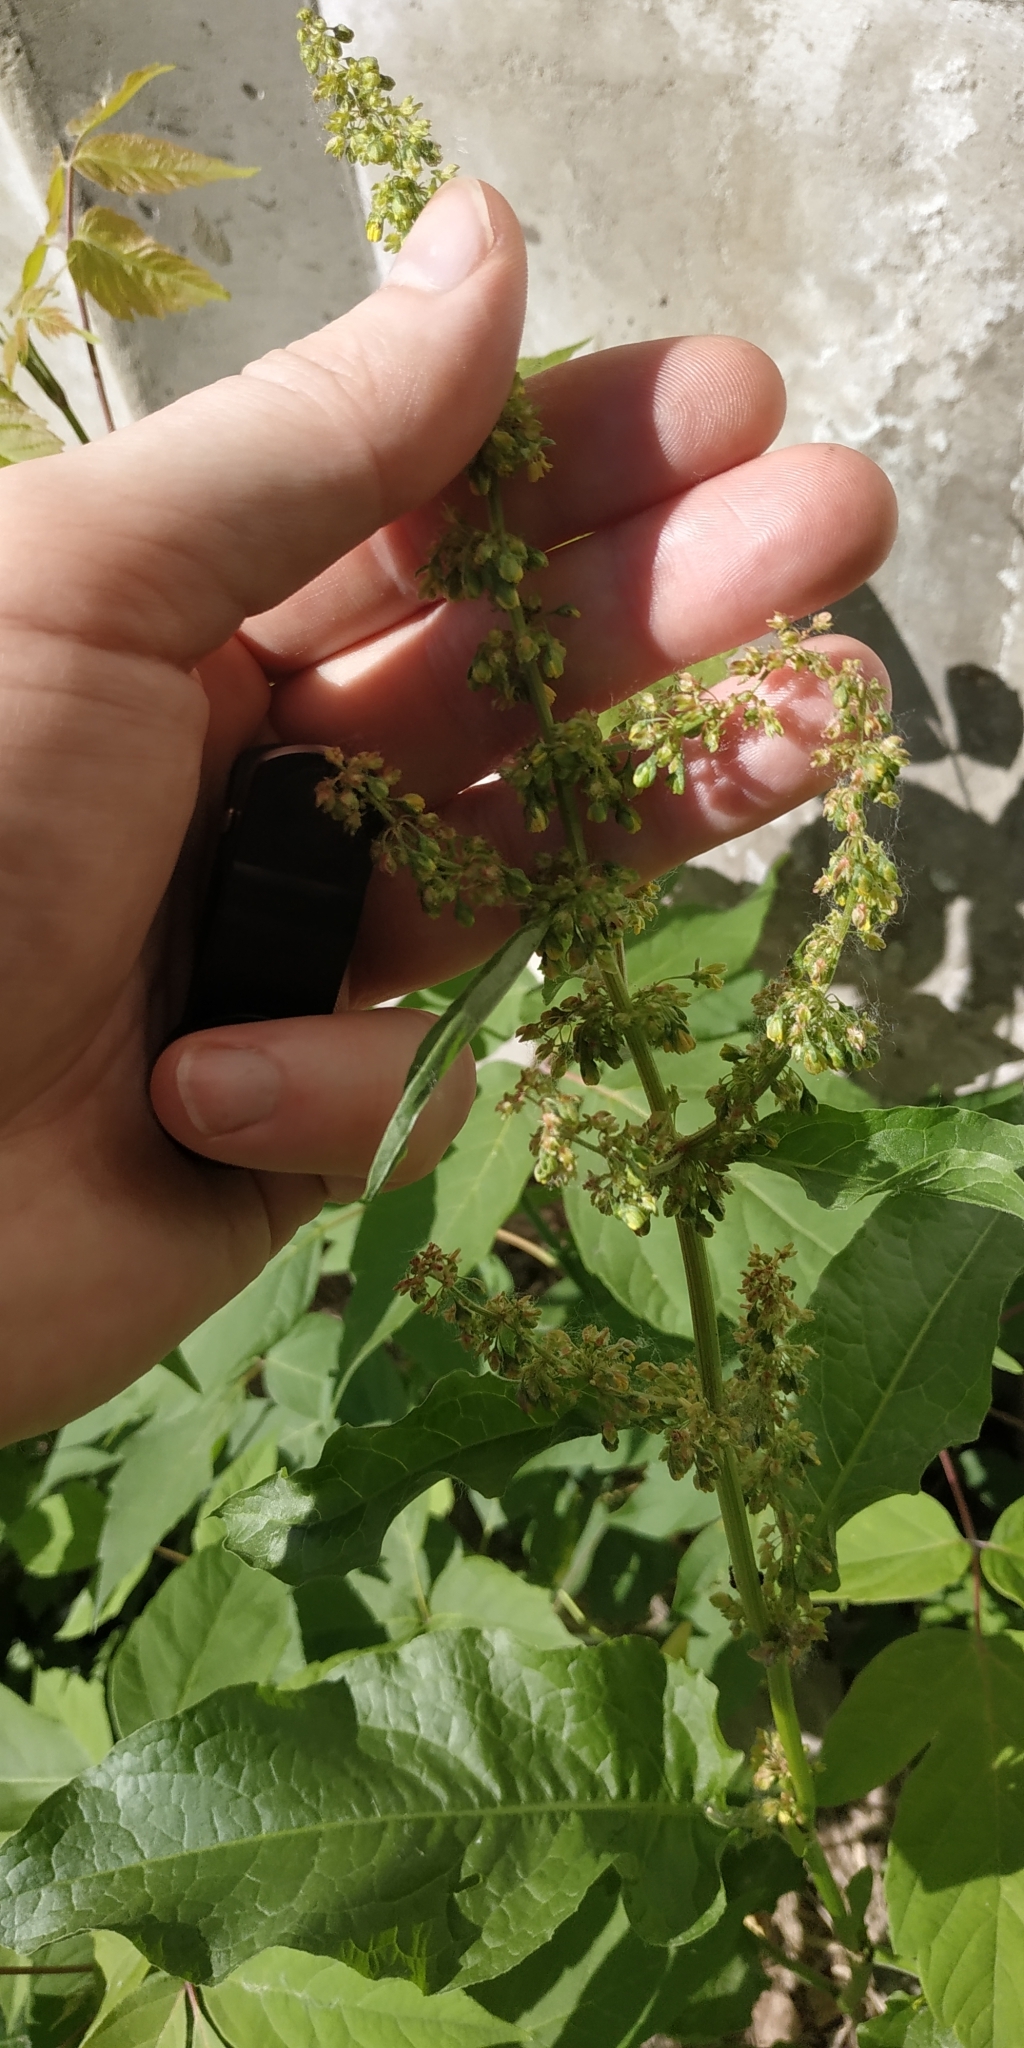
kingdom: Plantae
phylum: Tracheophyta
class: Magnoliopsida
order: Caryophyllales
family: Polygonaceae
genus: Rumex
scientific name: Rumex obtusifolius
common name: Bitter dock
